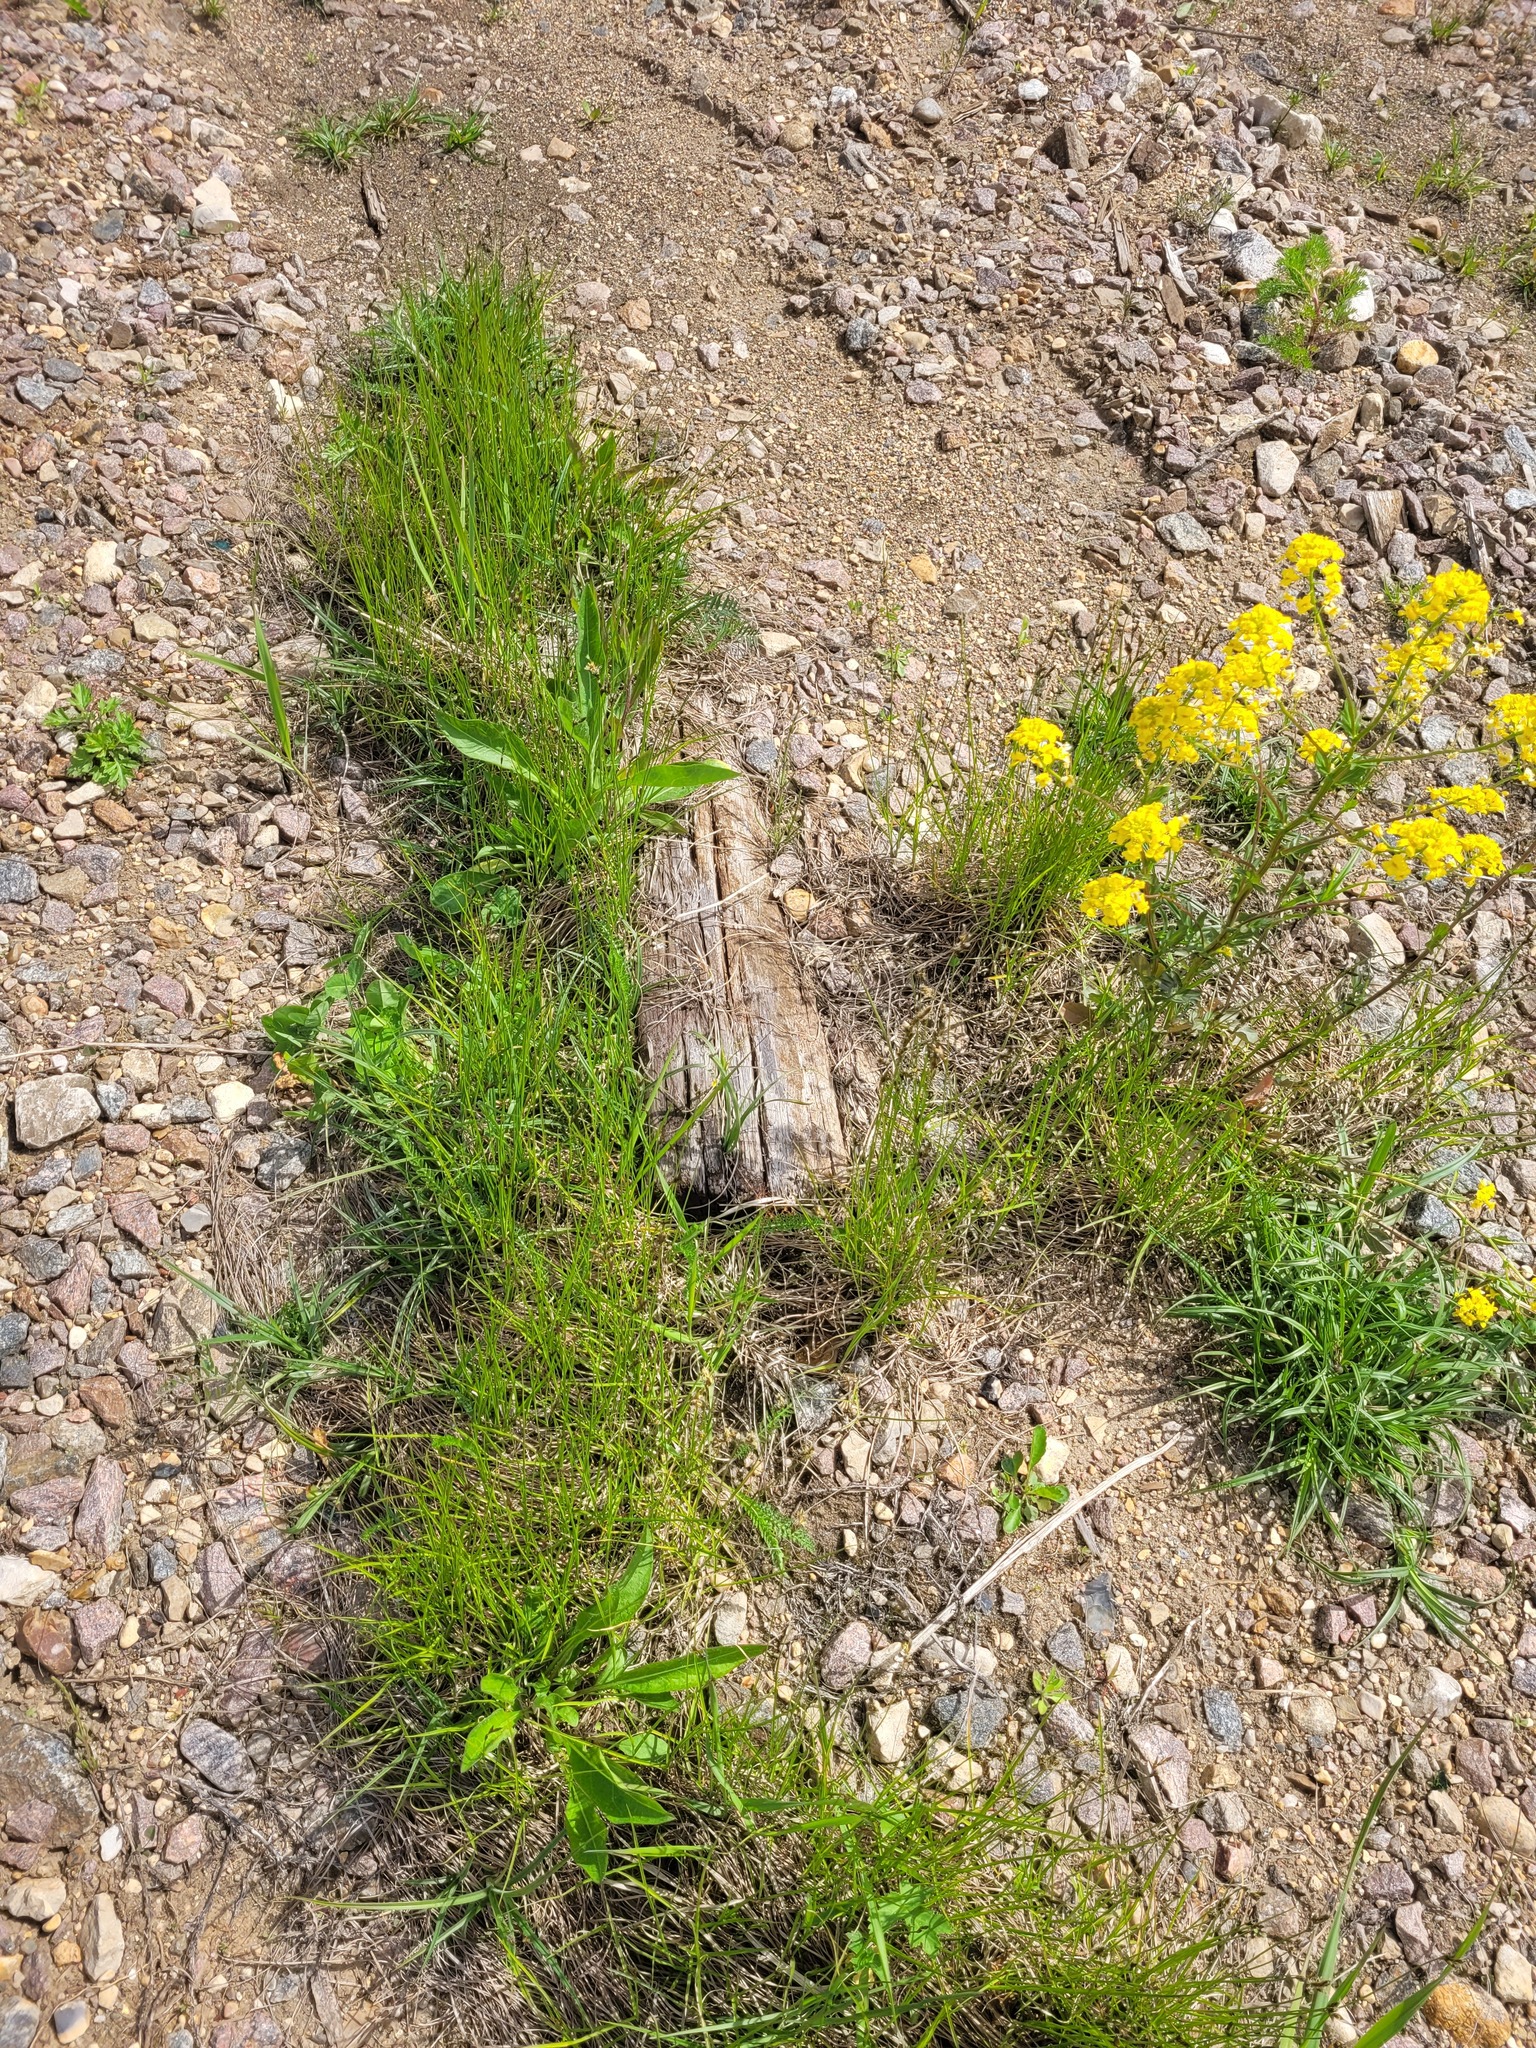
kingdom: Plantae
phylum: Tracheophyta
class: Liliopsida
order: Poales
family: Cyperaceae
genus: Carex
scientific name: Carex praecox
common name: Early sedge
